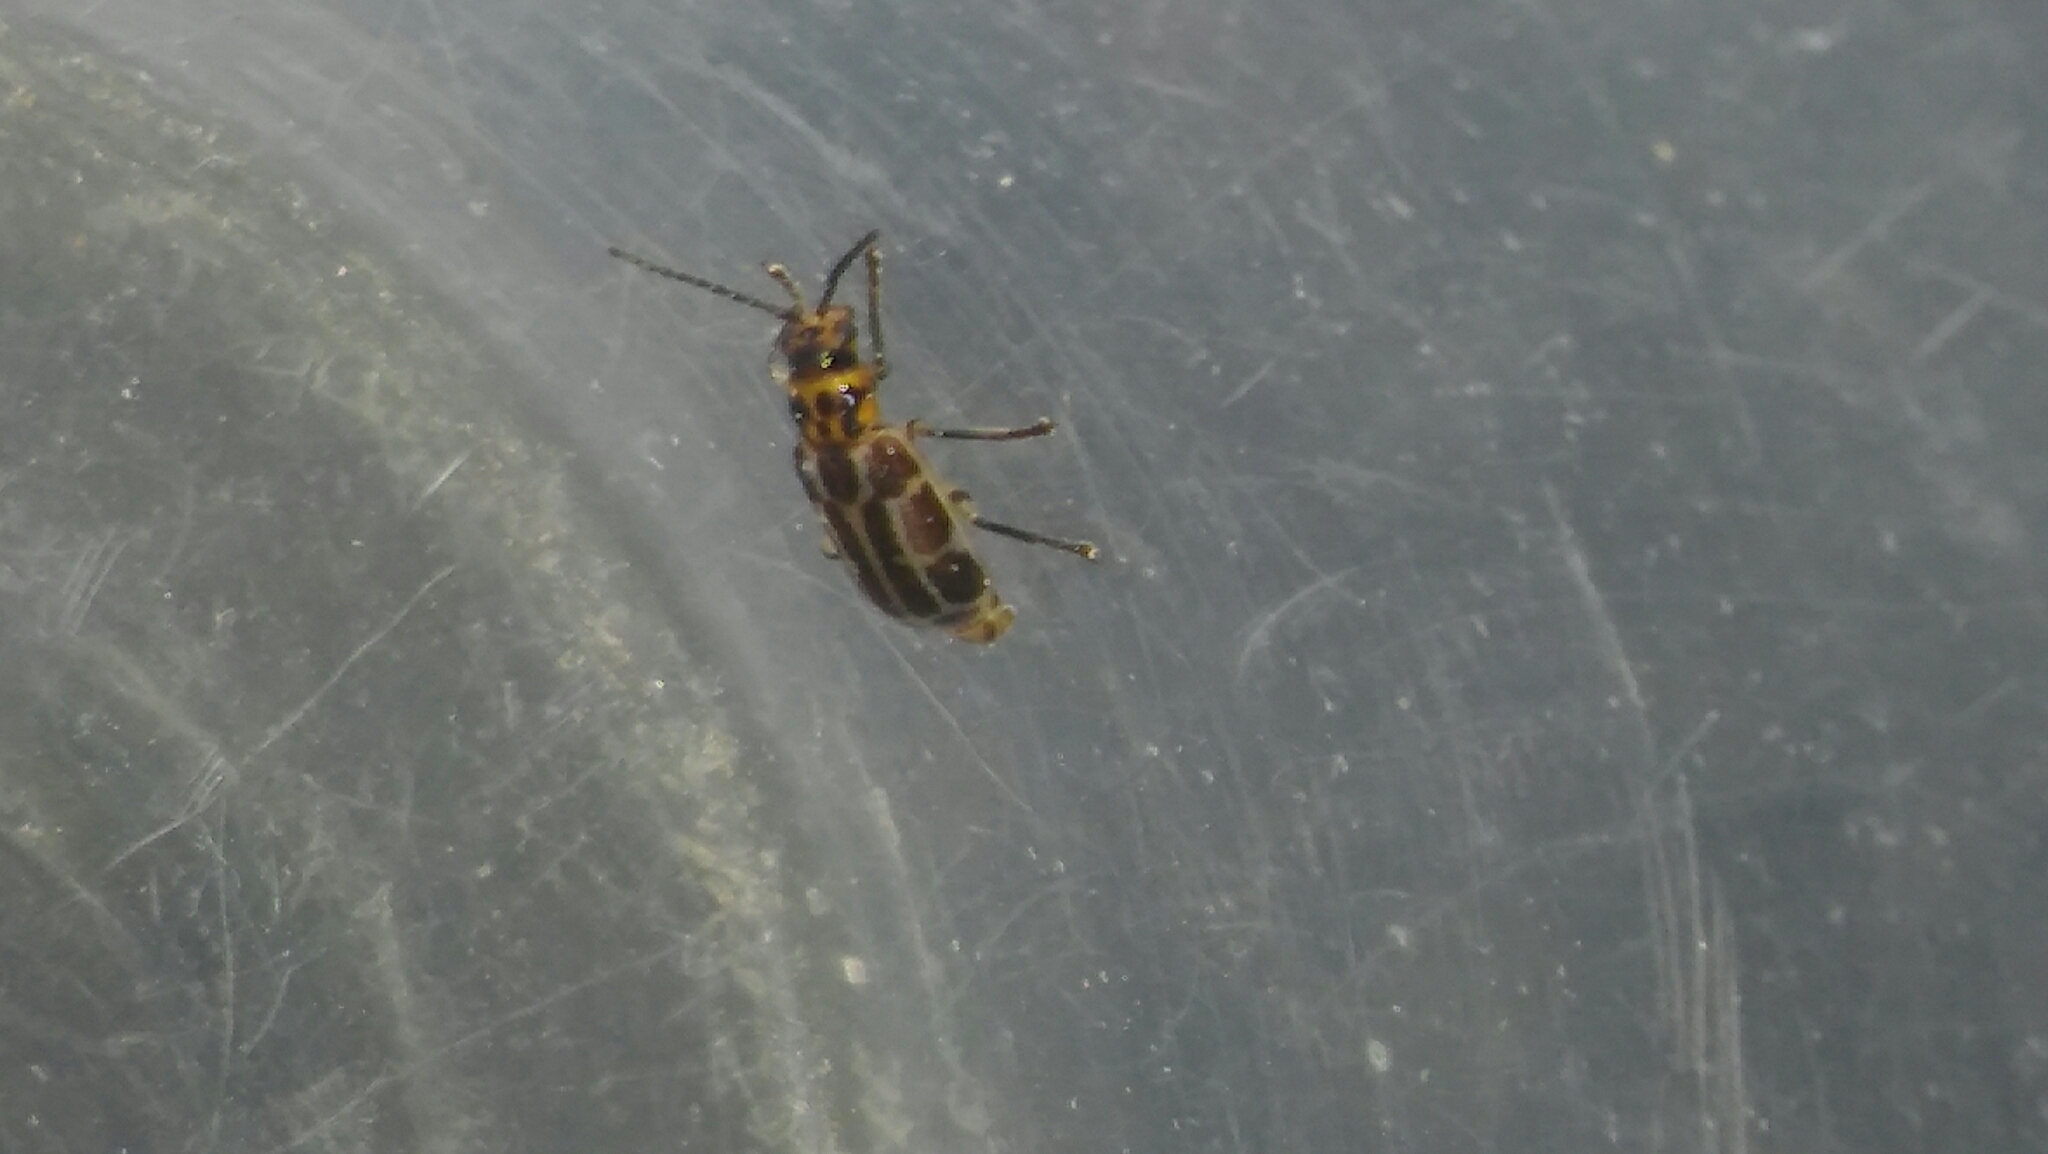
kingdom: Animalia
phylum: Arthropoda
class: Insecta
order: Coleoptera
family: Chrysomelidae
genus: Anisobrotica
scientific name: Anisobrotica
